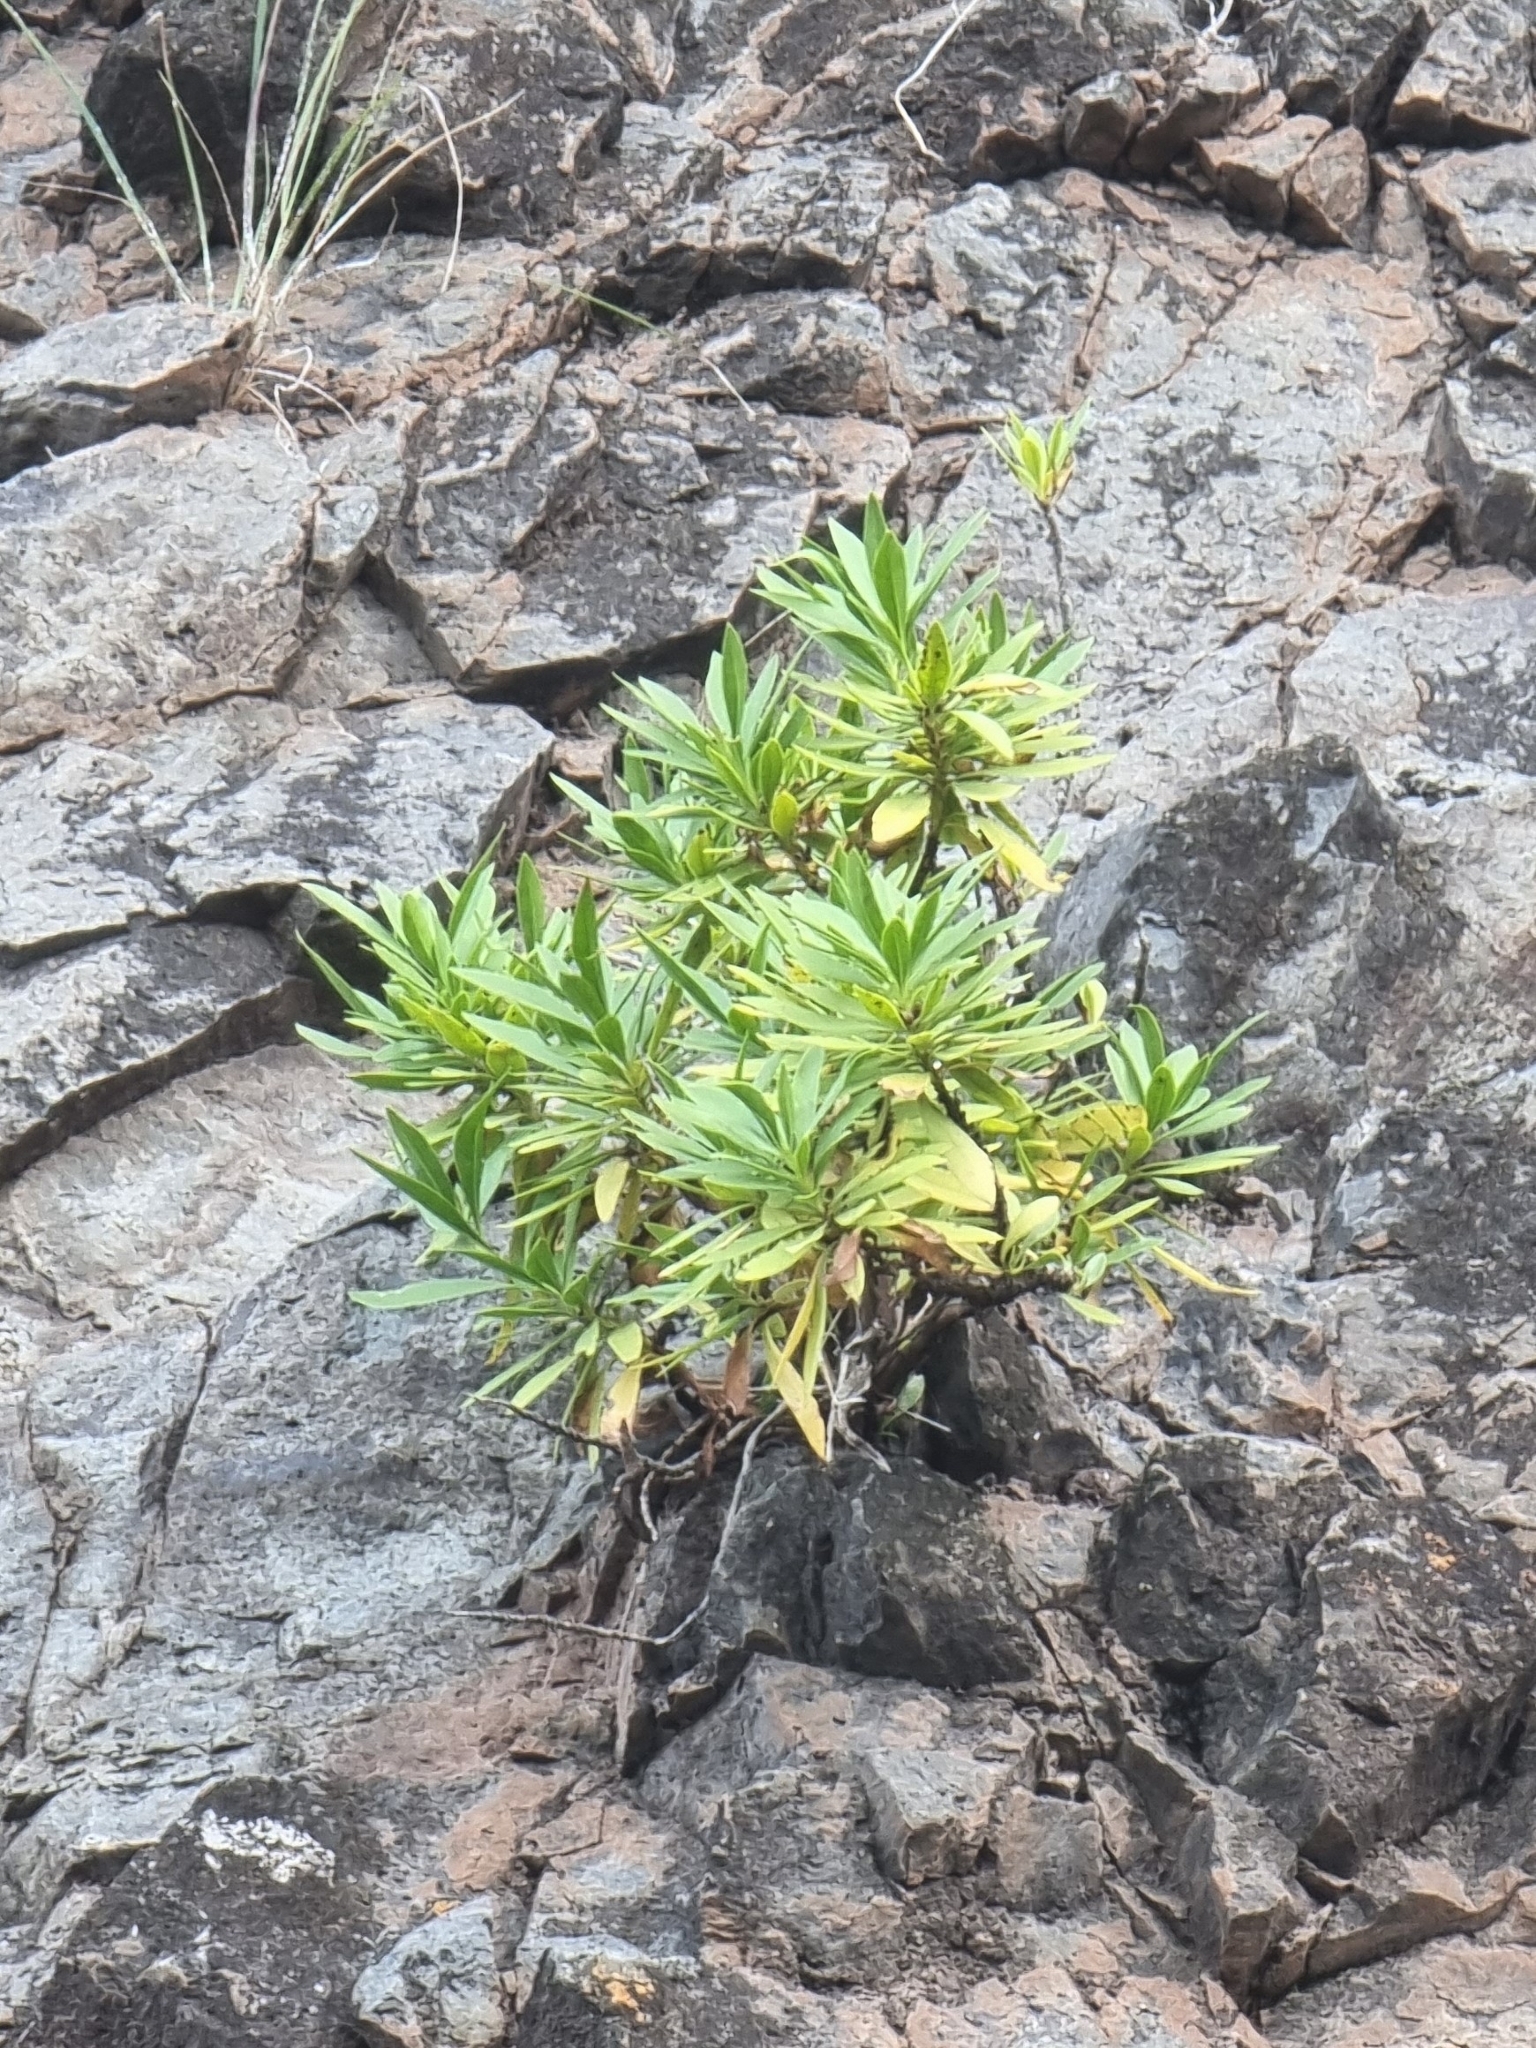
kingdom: Plantae
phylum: Tracheophyta
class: Magnoliopsida
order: Lamiales
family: Plantaginaceae
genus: Globularia
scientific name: Globularia salicina
